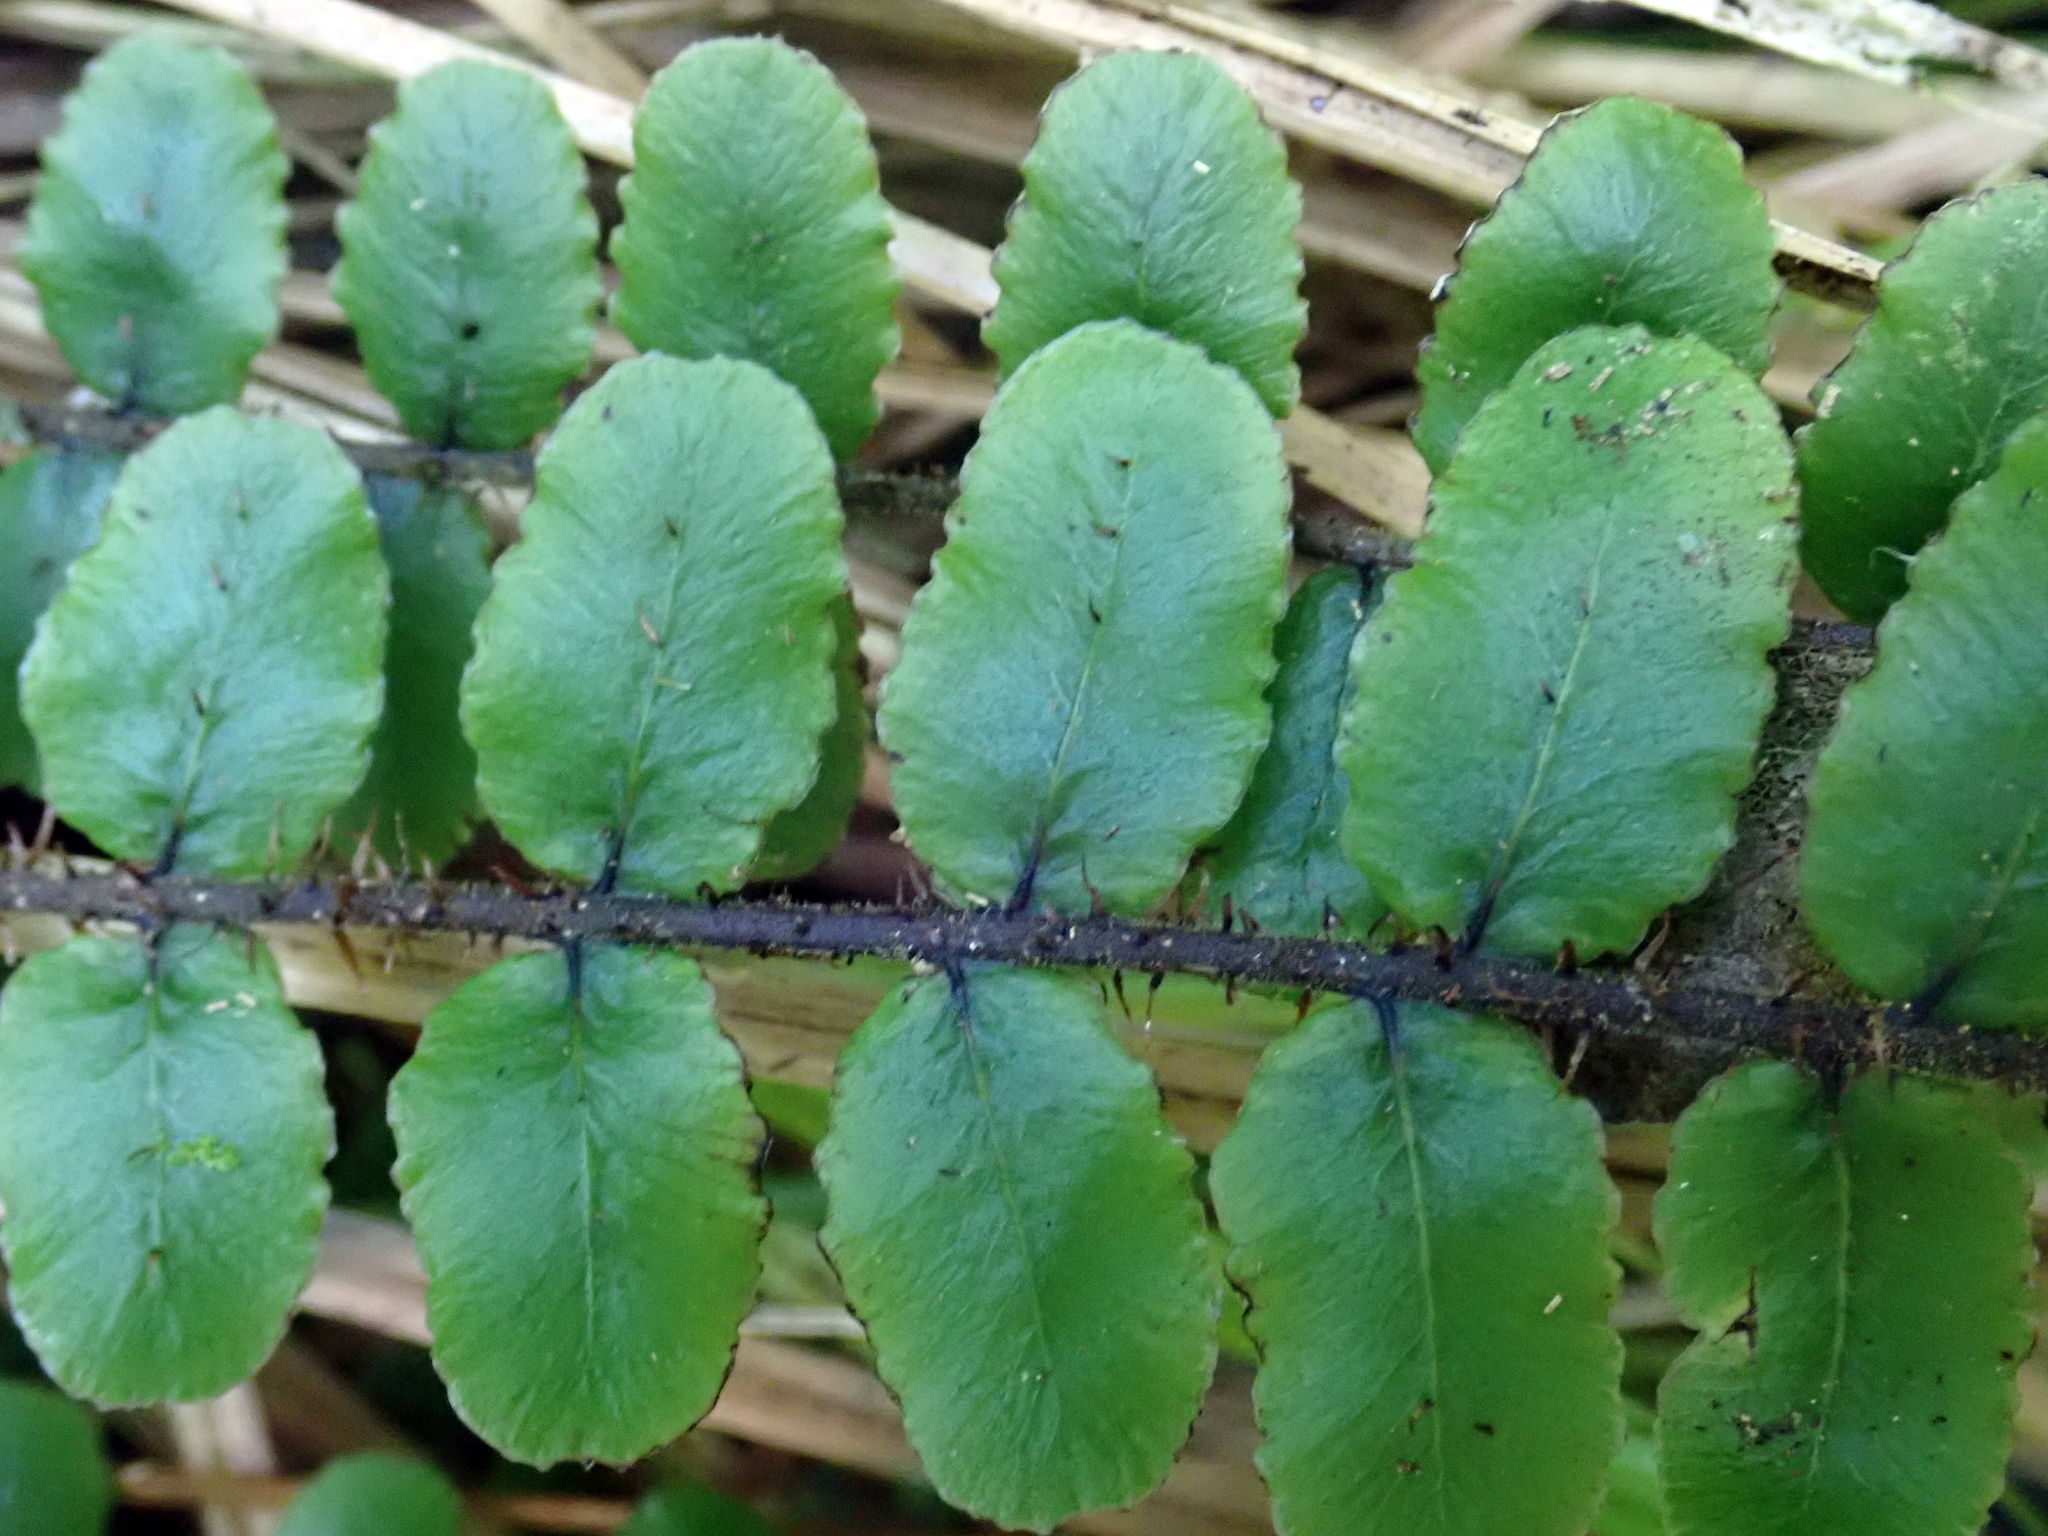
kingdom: Plantae
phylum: Tracheophyta
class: Polypodiopsida
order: Polypodiales
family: Blechnaceae
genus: Cranfillia
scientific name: Cranfillia fluviatilis
